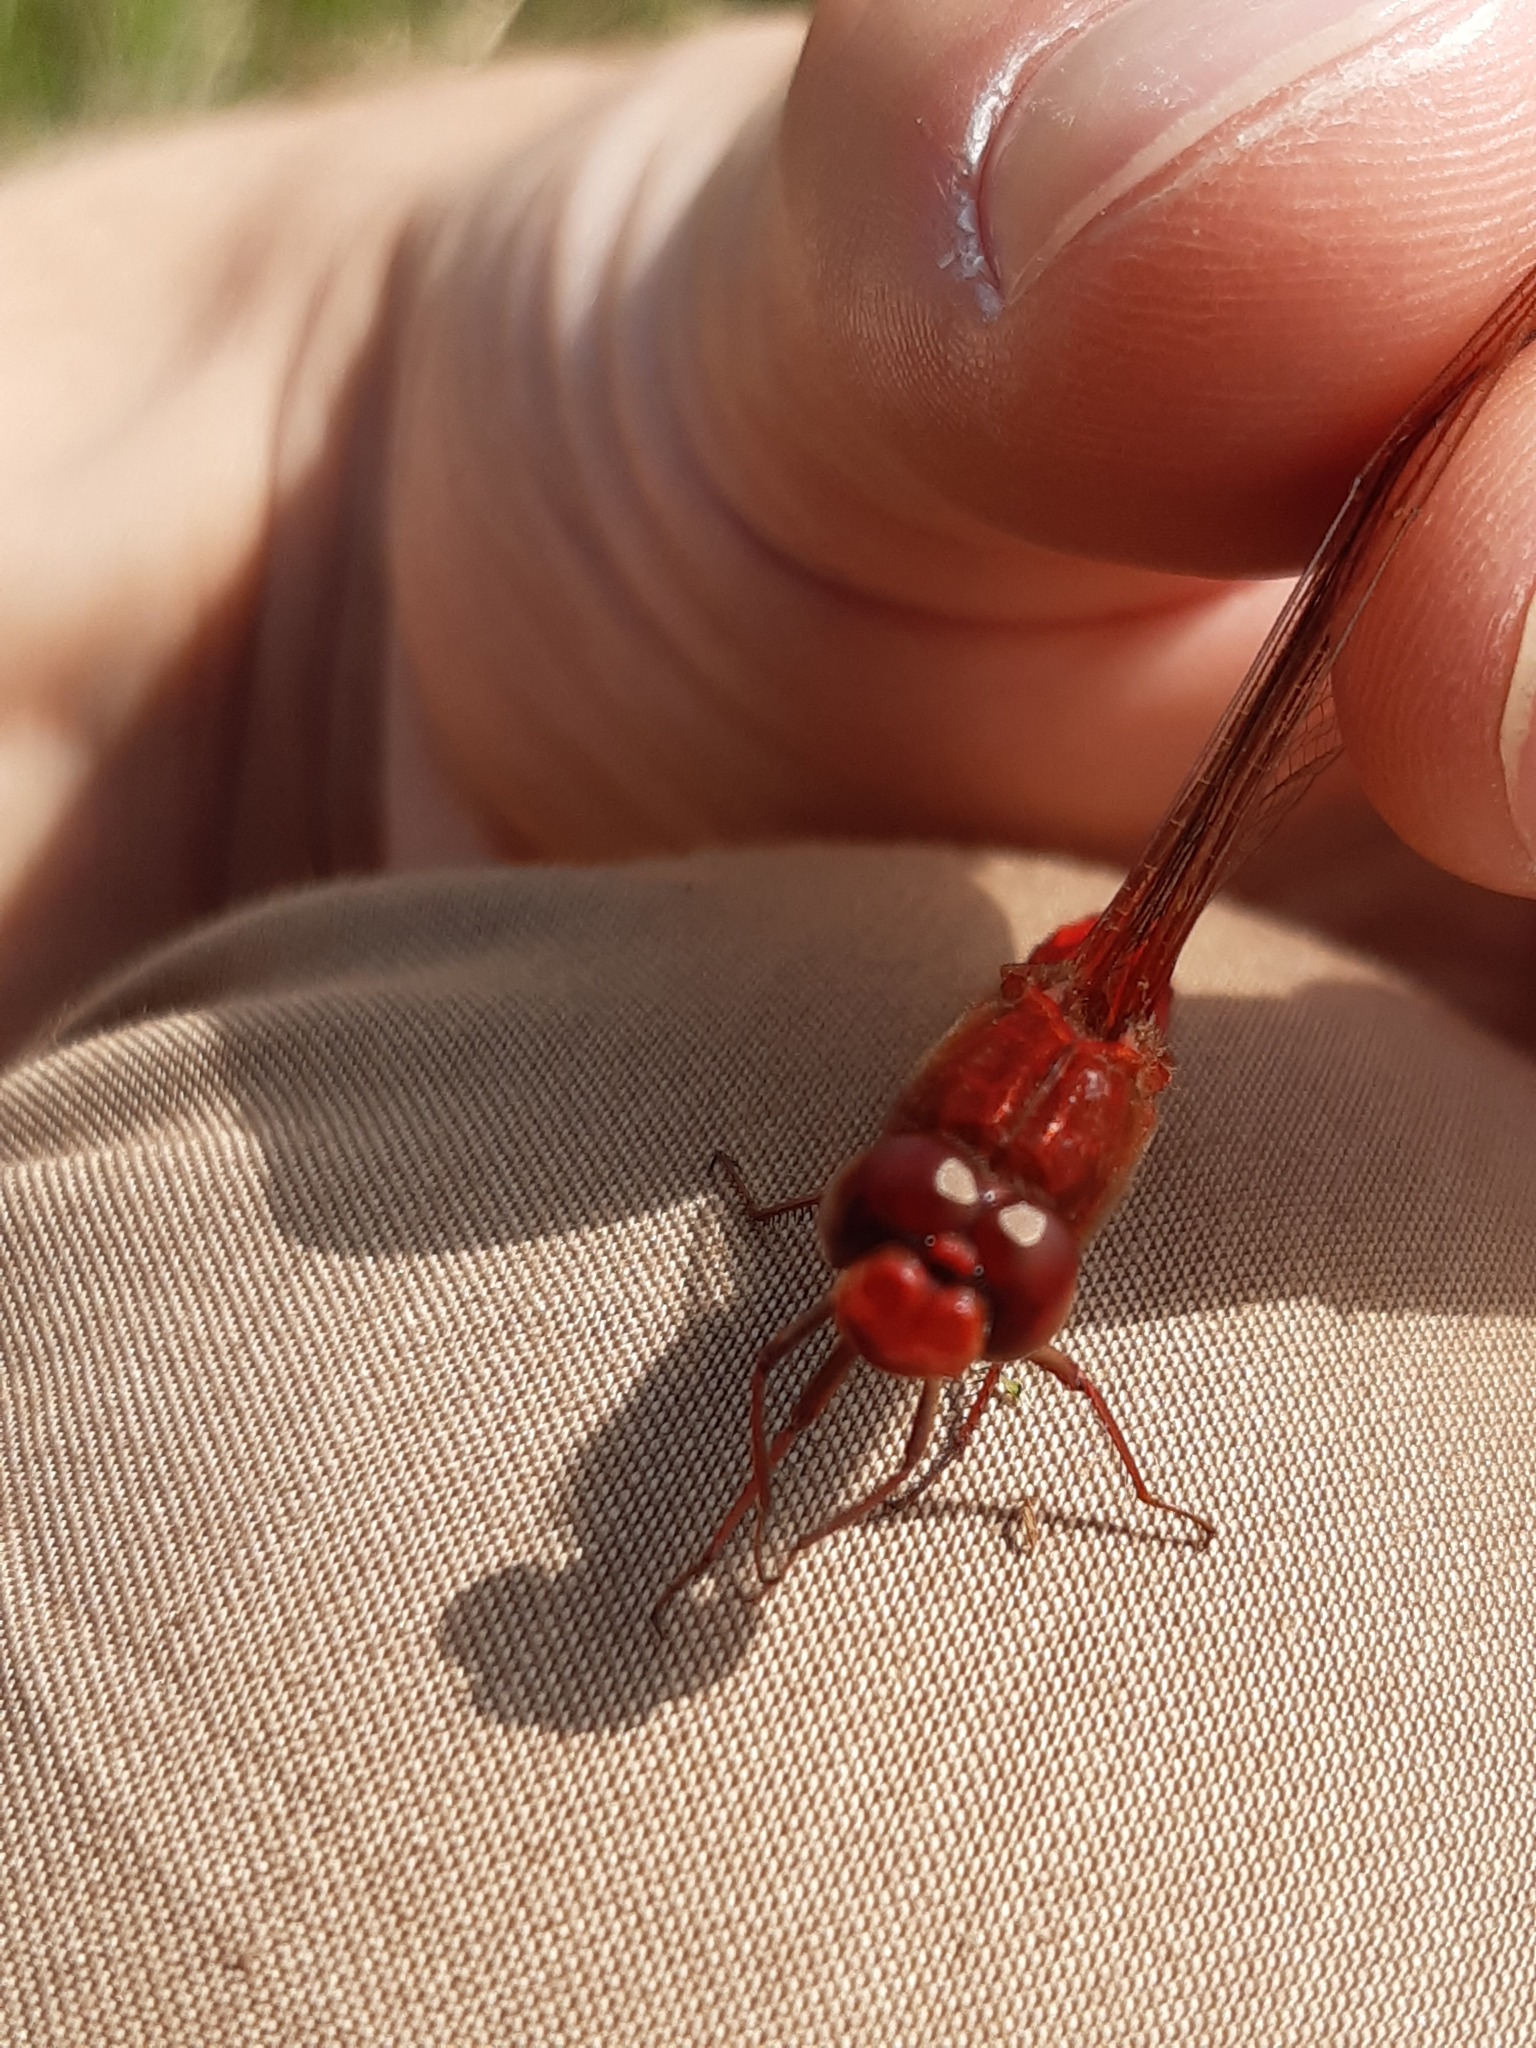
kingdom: Animalia
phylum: Arthropoda
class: Insecta
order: Odonata
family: Libellulidae
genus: Crocothemis
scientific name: Crocothemis erythraea
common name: Scarlet dragonfly
